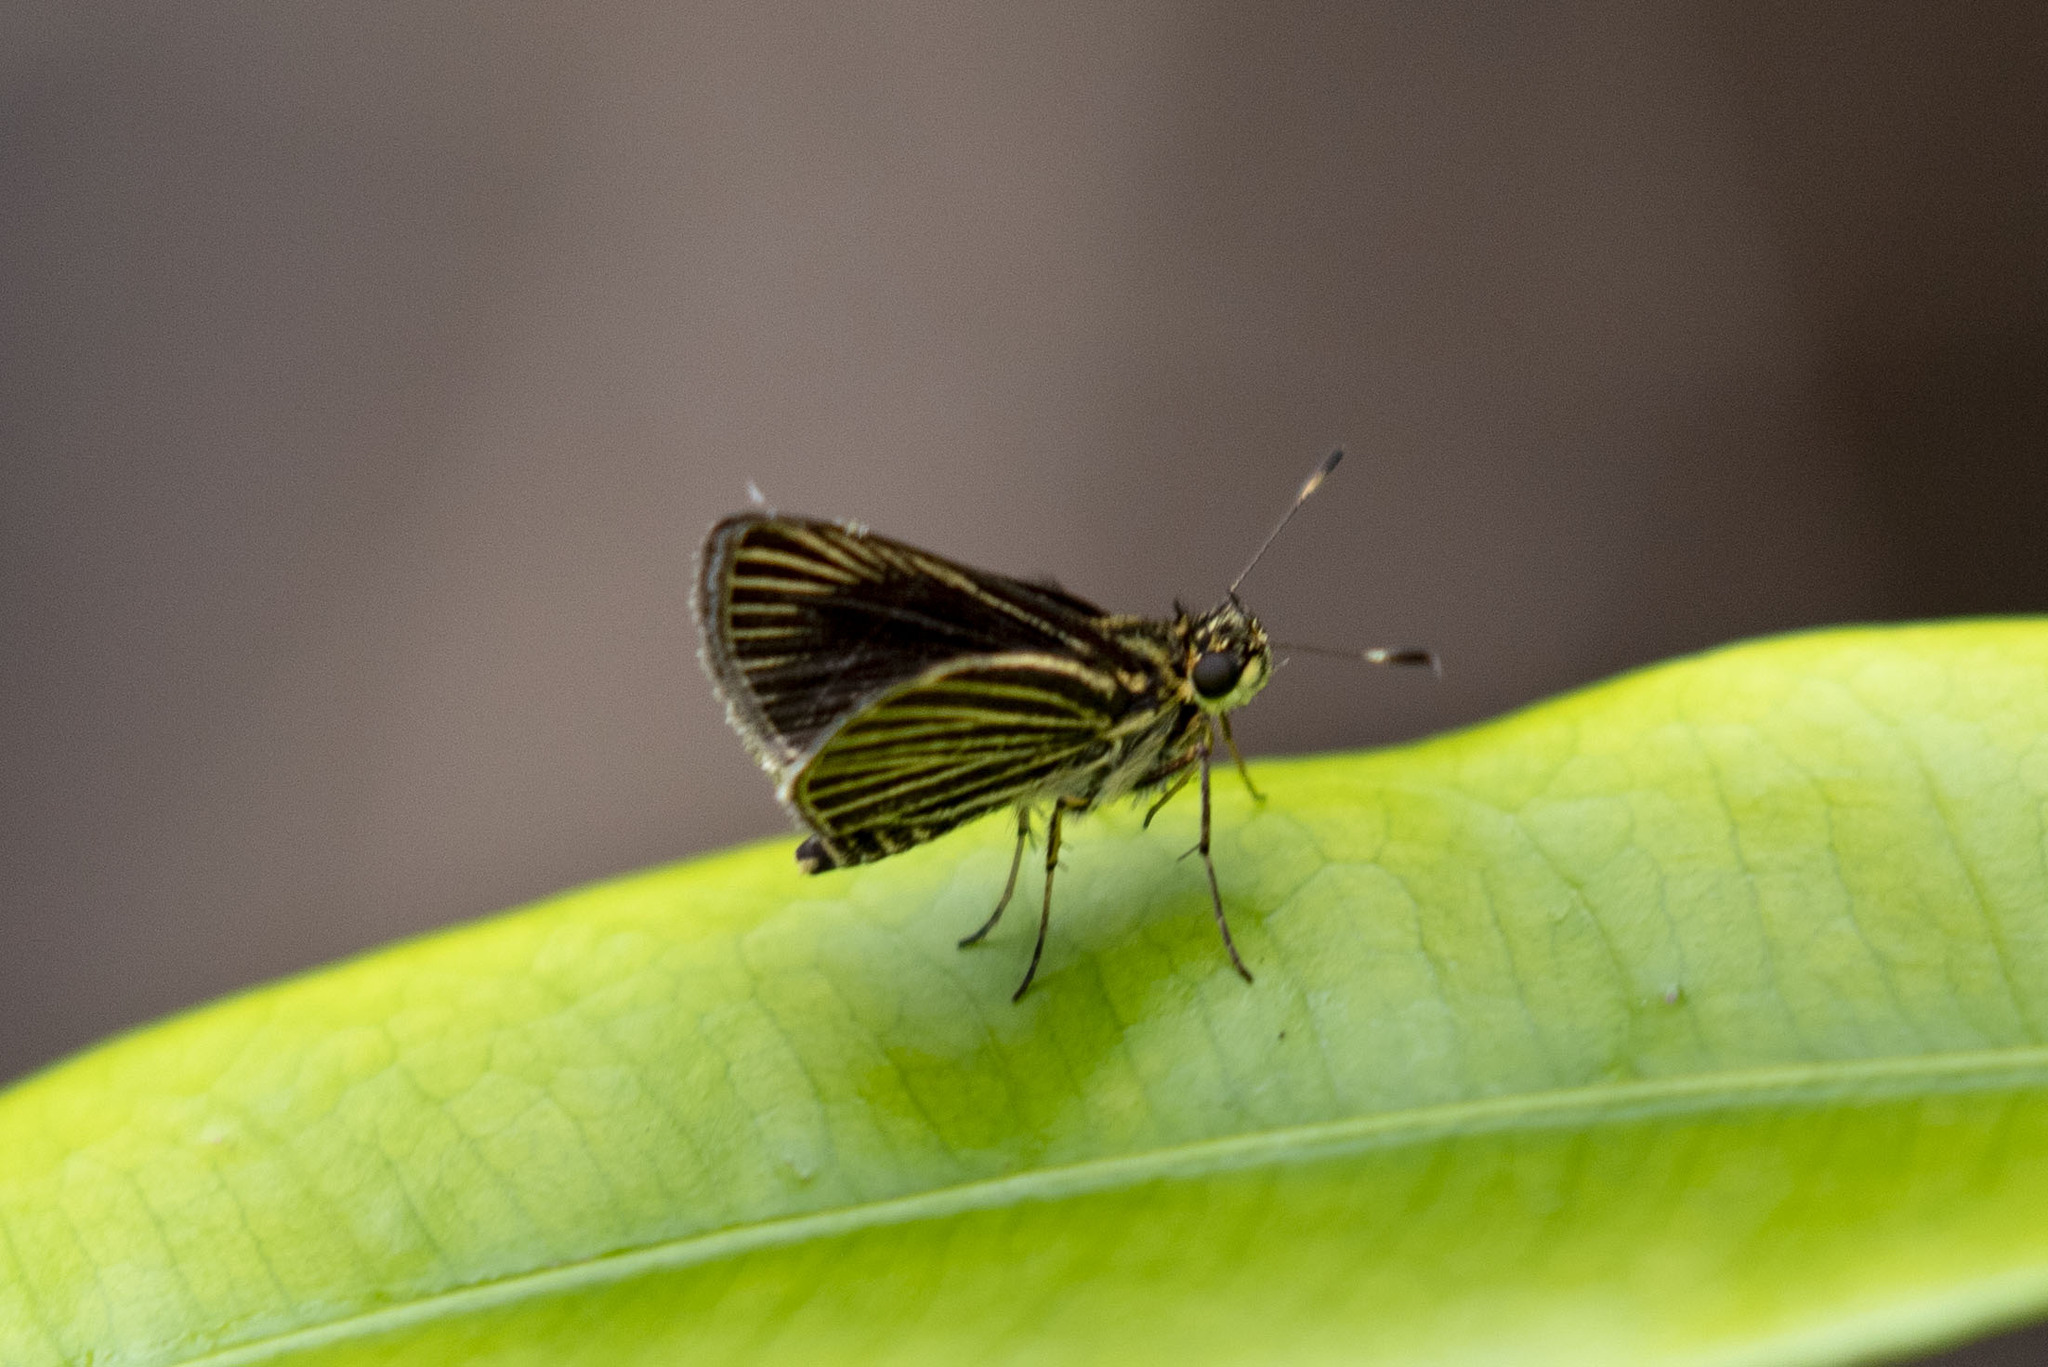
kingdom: Animalia
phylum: Arthropoda
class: Insecta
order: Lepidoptera
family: Hesperiidae
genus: Callimormus
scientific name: Callimormus radiola
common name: Radiant skipper
